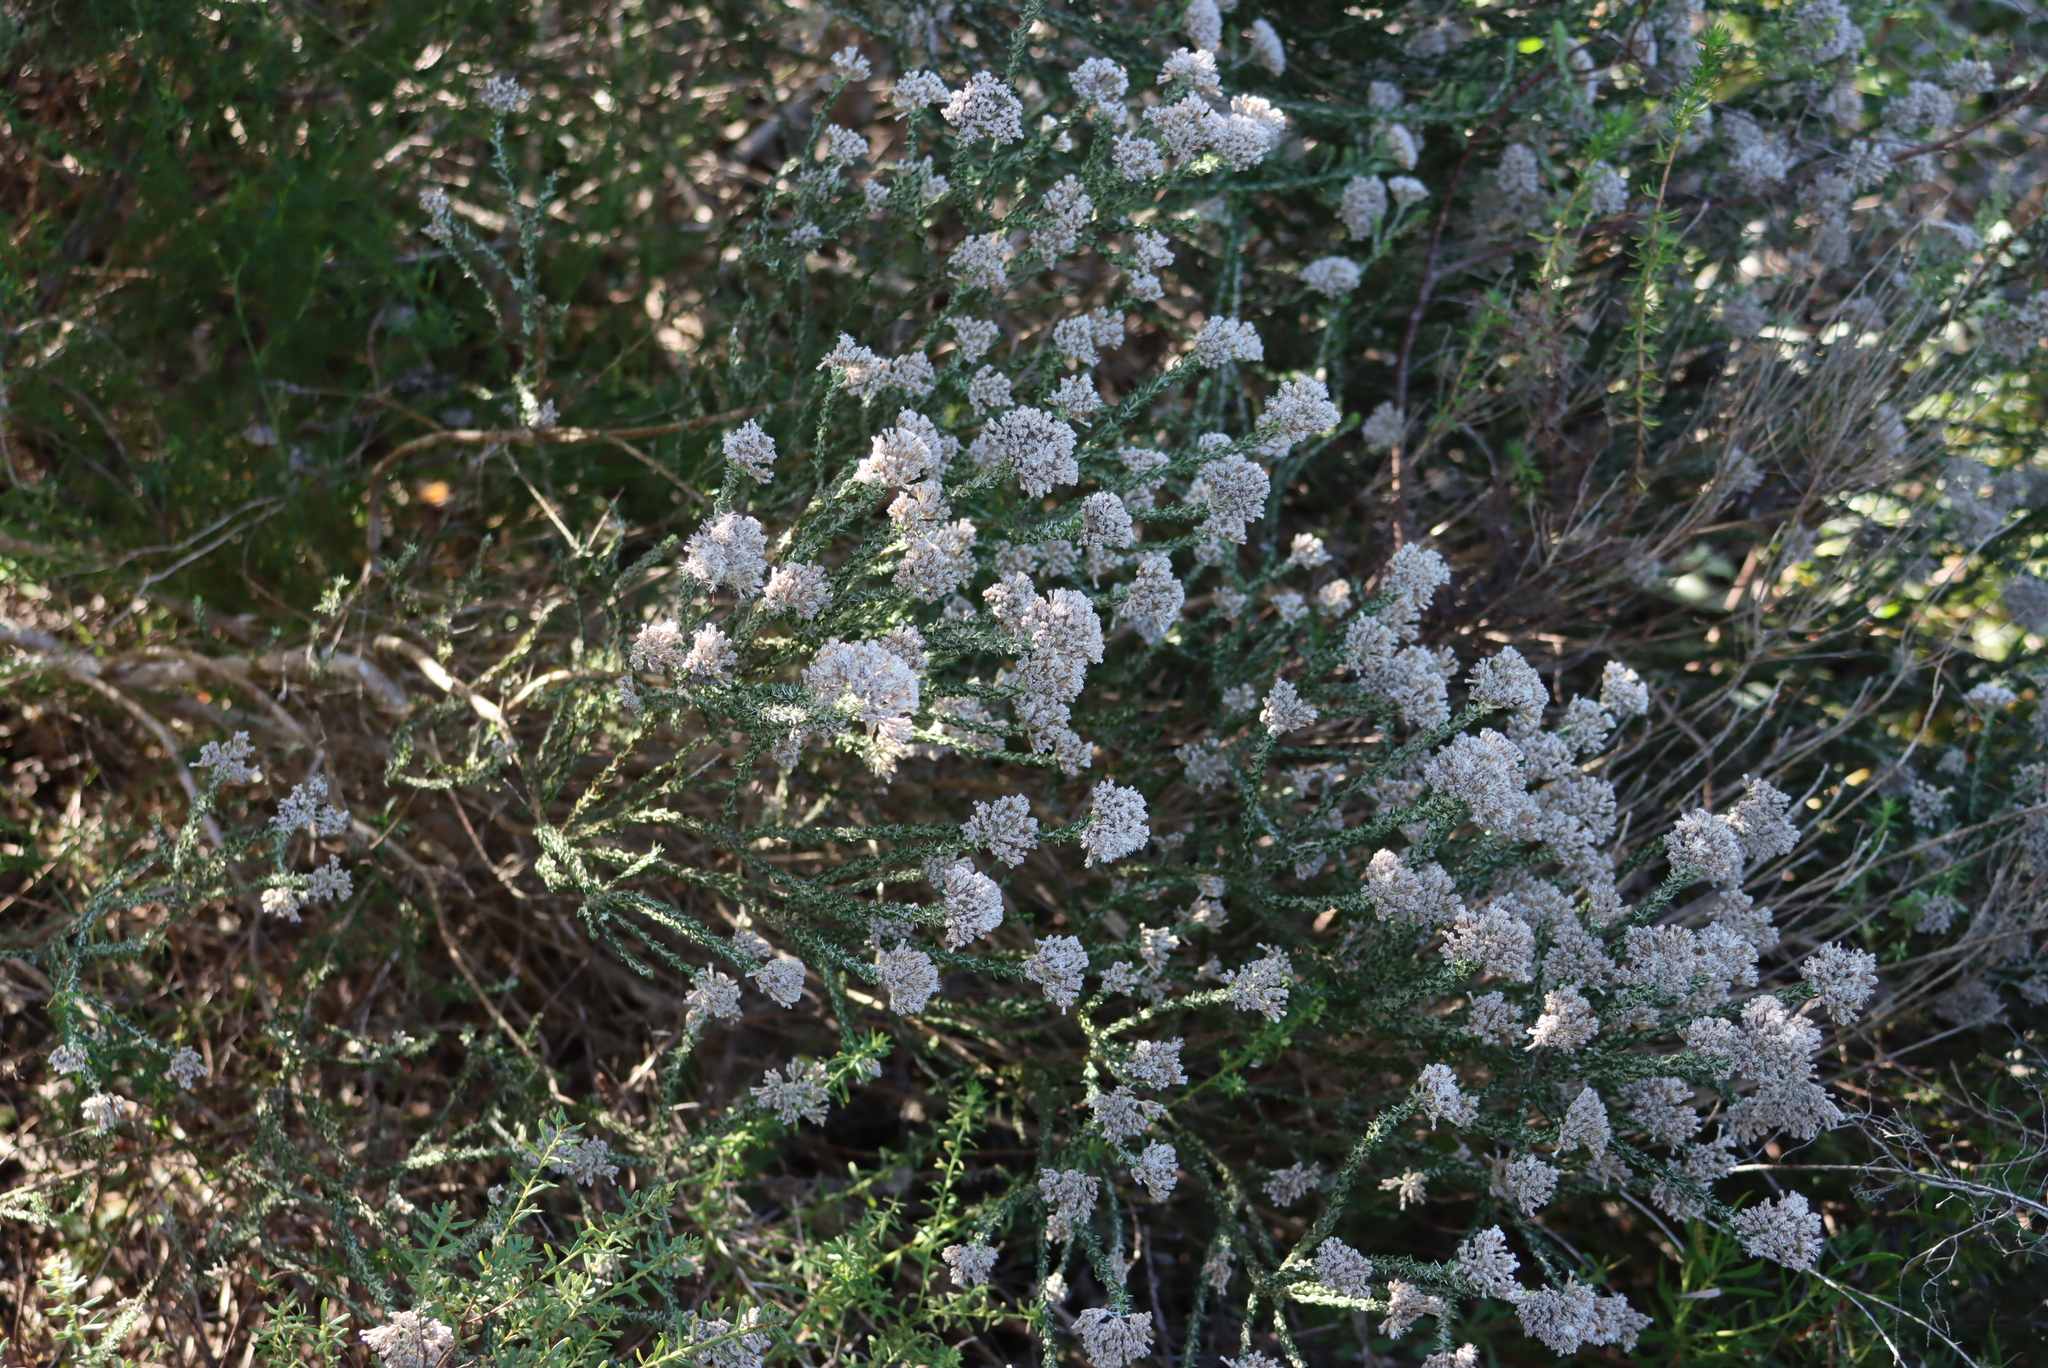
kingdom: Plantae
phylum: Tracheophyta
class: Magnoliopsida
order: Asterales
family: Asteraceae
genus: Metalasia
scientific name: Metalasia pungens
